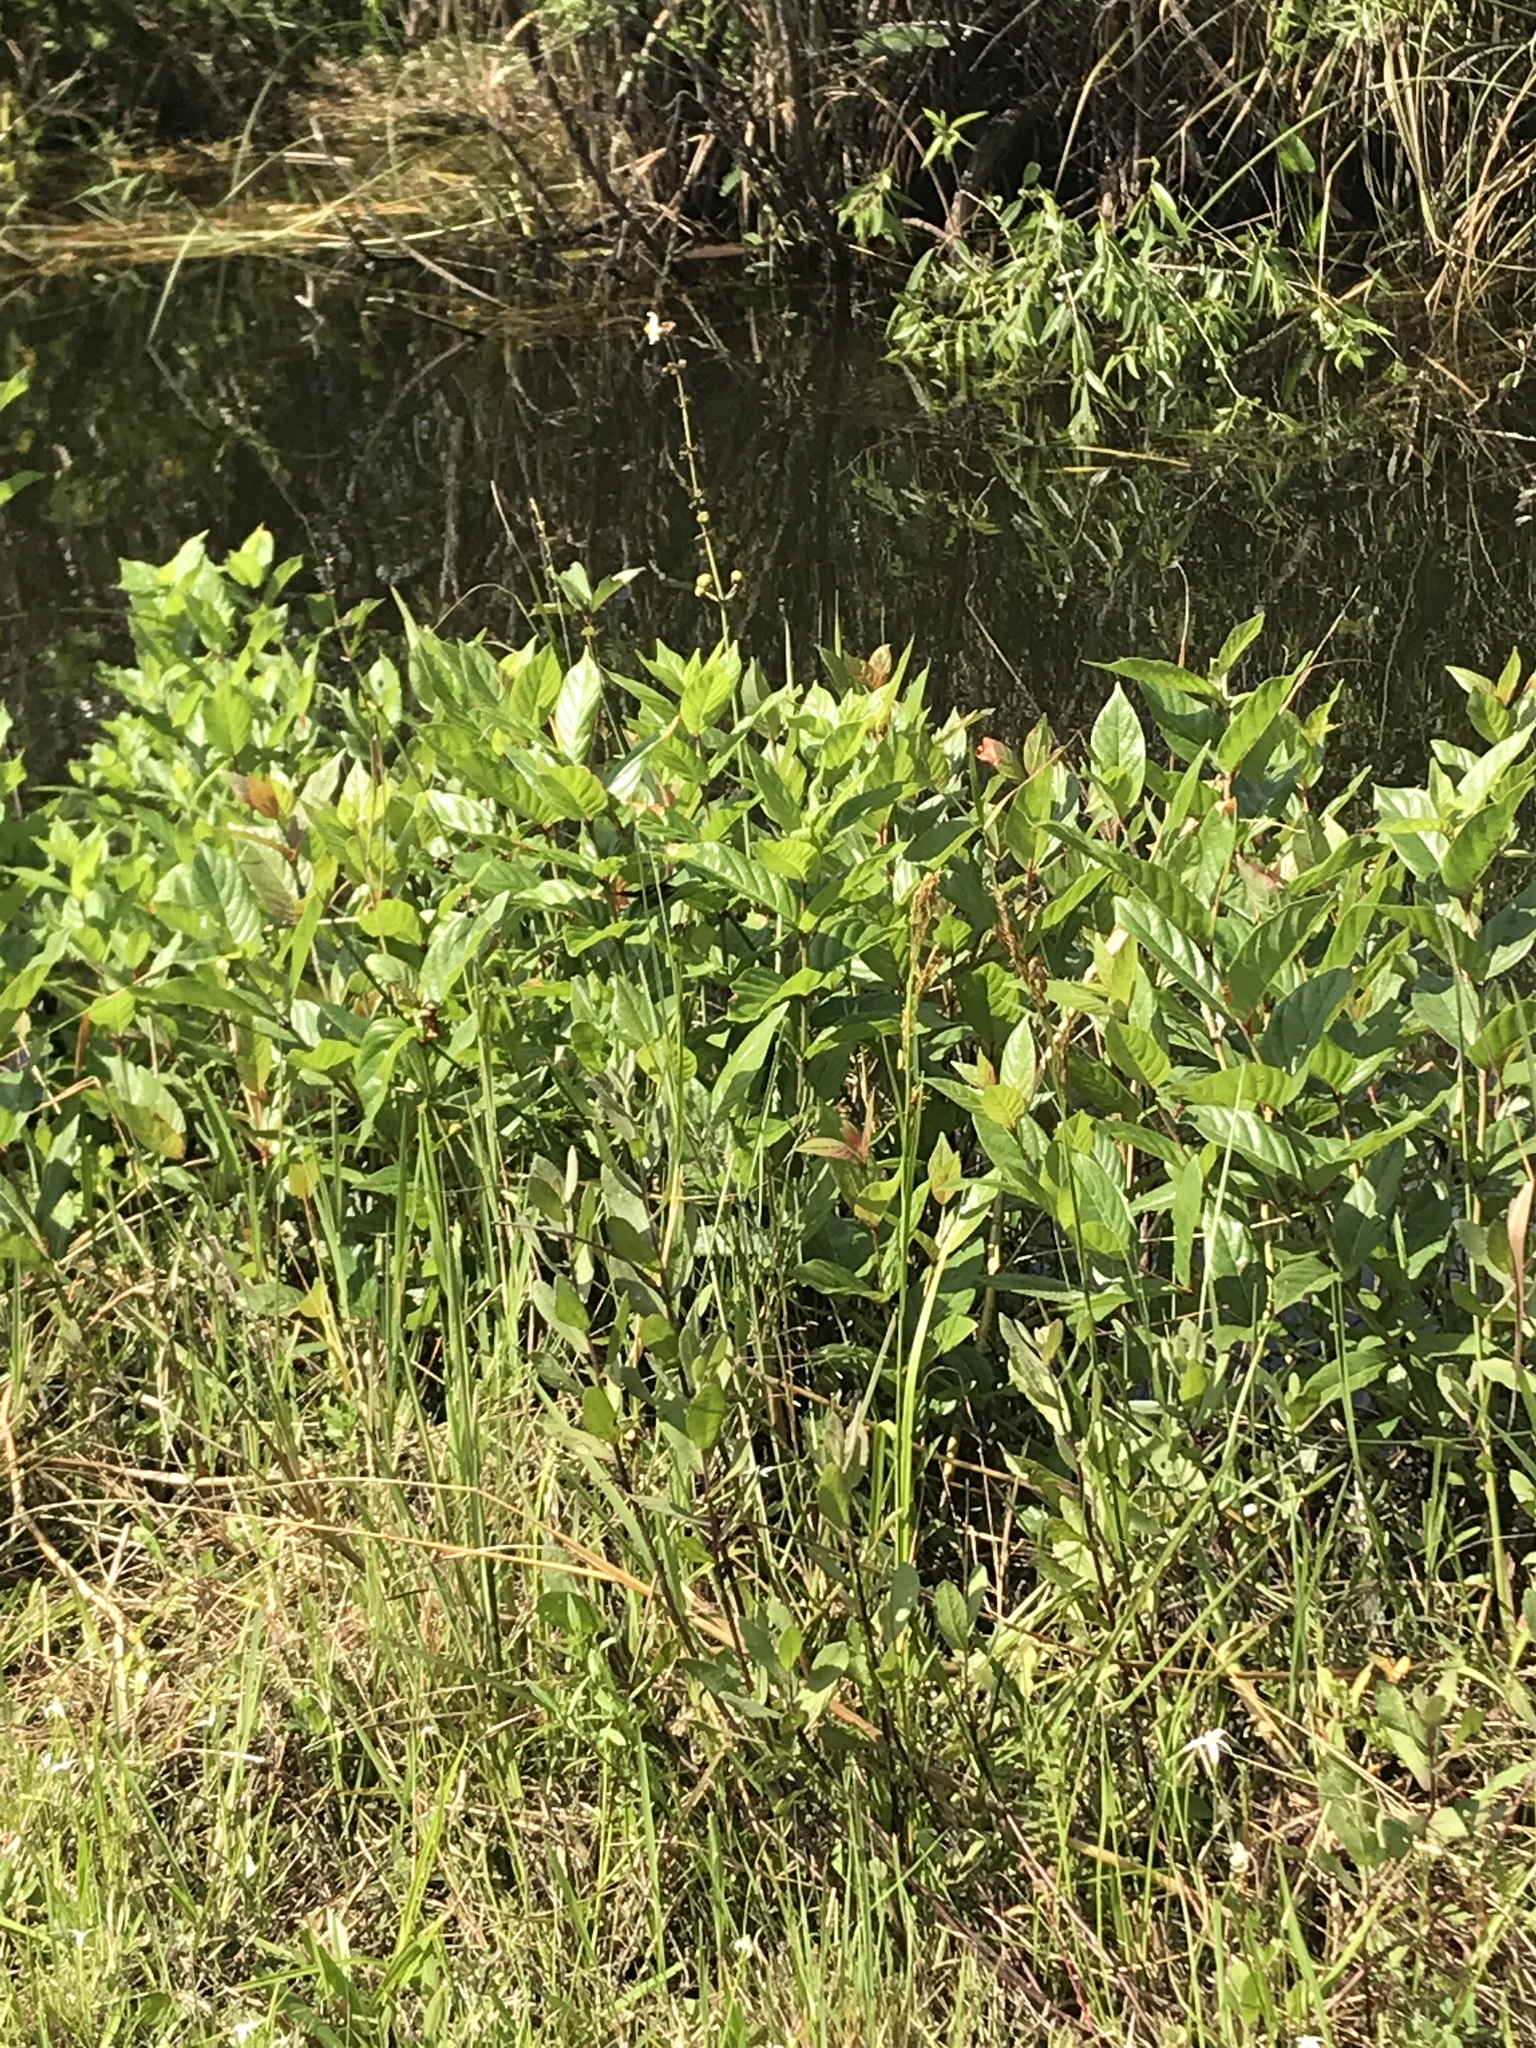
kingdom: Plantae
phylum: Tracheophyta
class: Magnoliopsida
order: Gentianales
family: Rubiaceae
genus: Cephalanthus
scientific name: Cephalanthus occidentalis
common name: Button-willow
